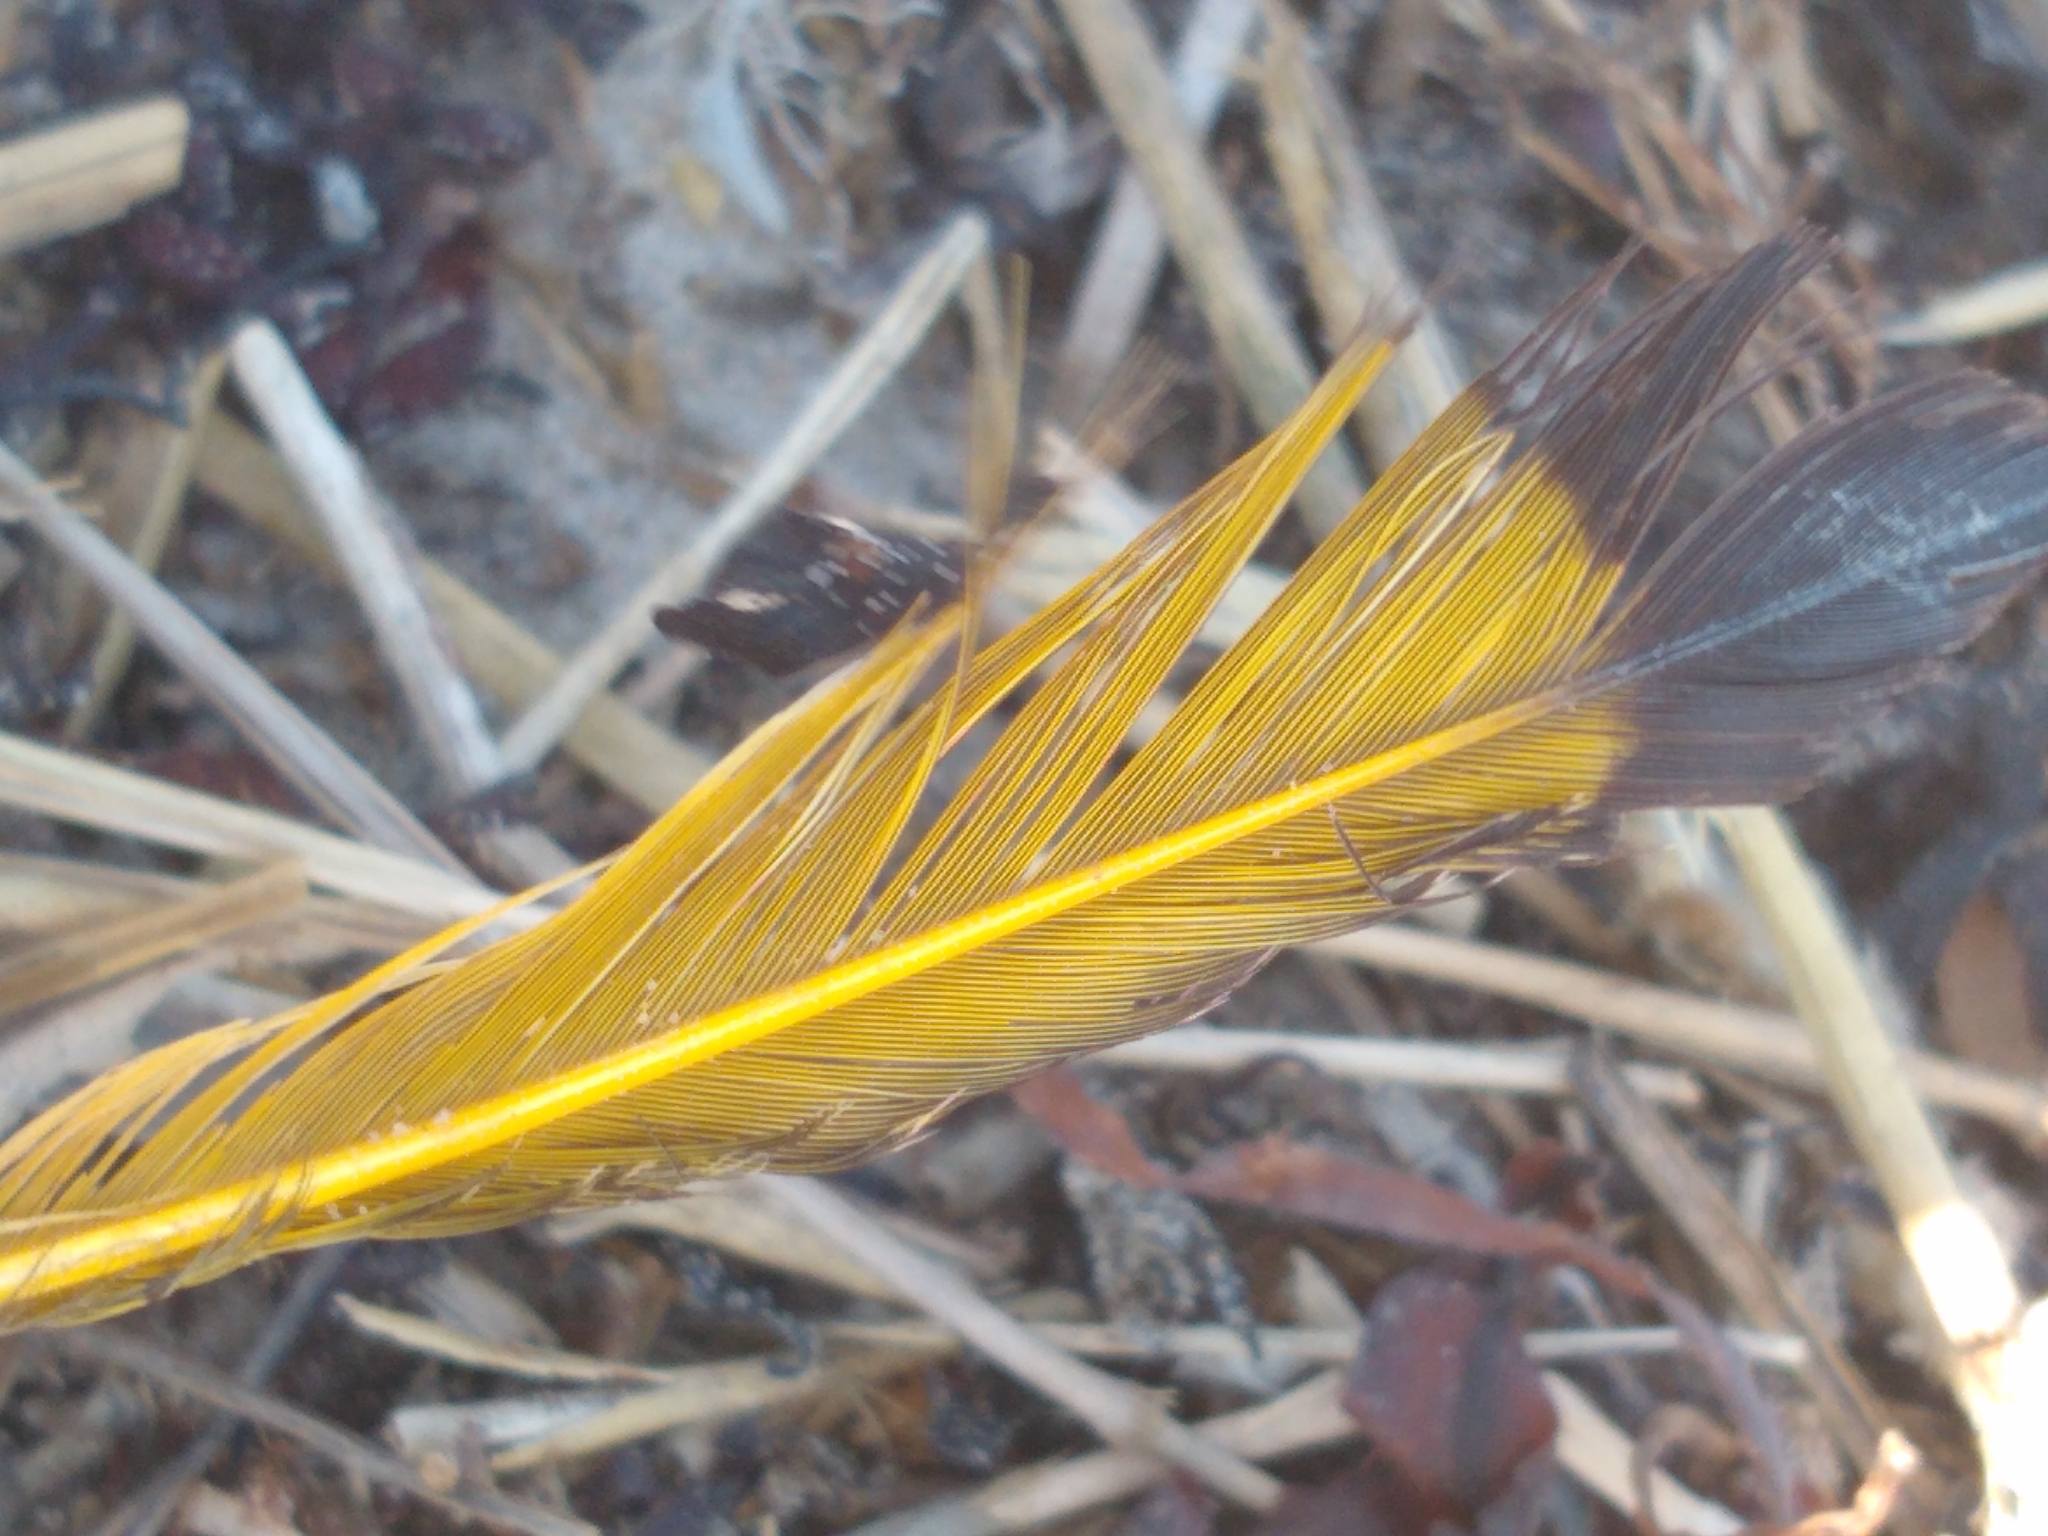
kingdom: Animalia
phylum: Chordata
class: Aves
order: Piciformes
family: Picidae
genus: Colaptes
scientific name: Colaptes auratus
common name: Northern flicker
